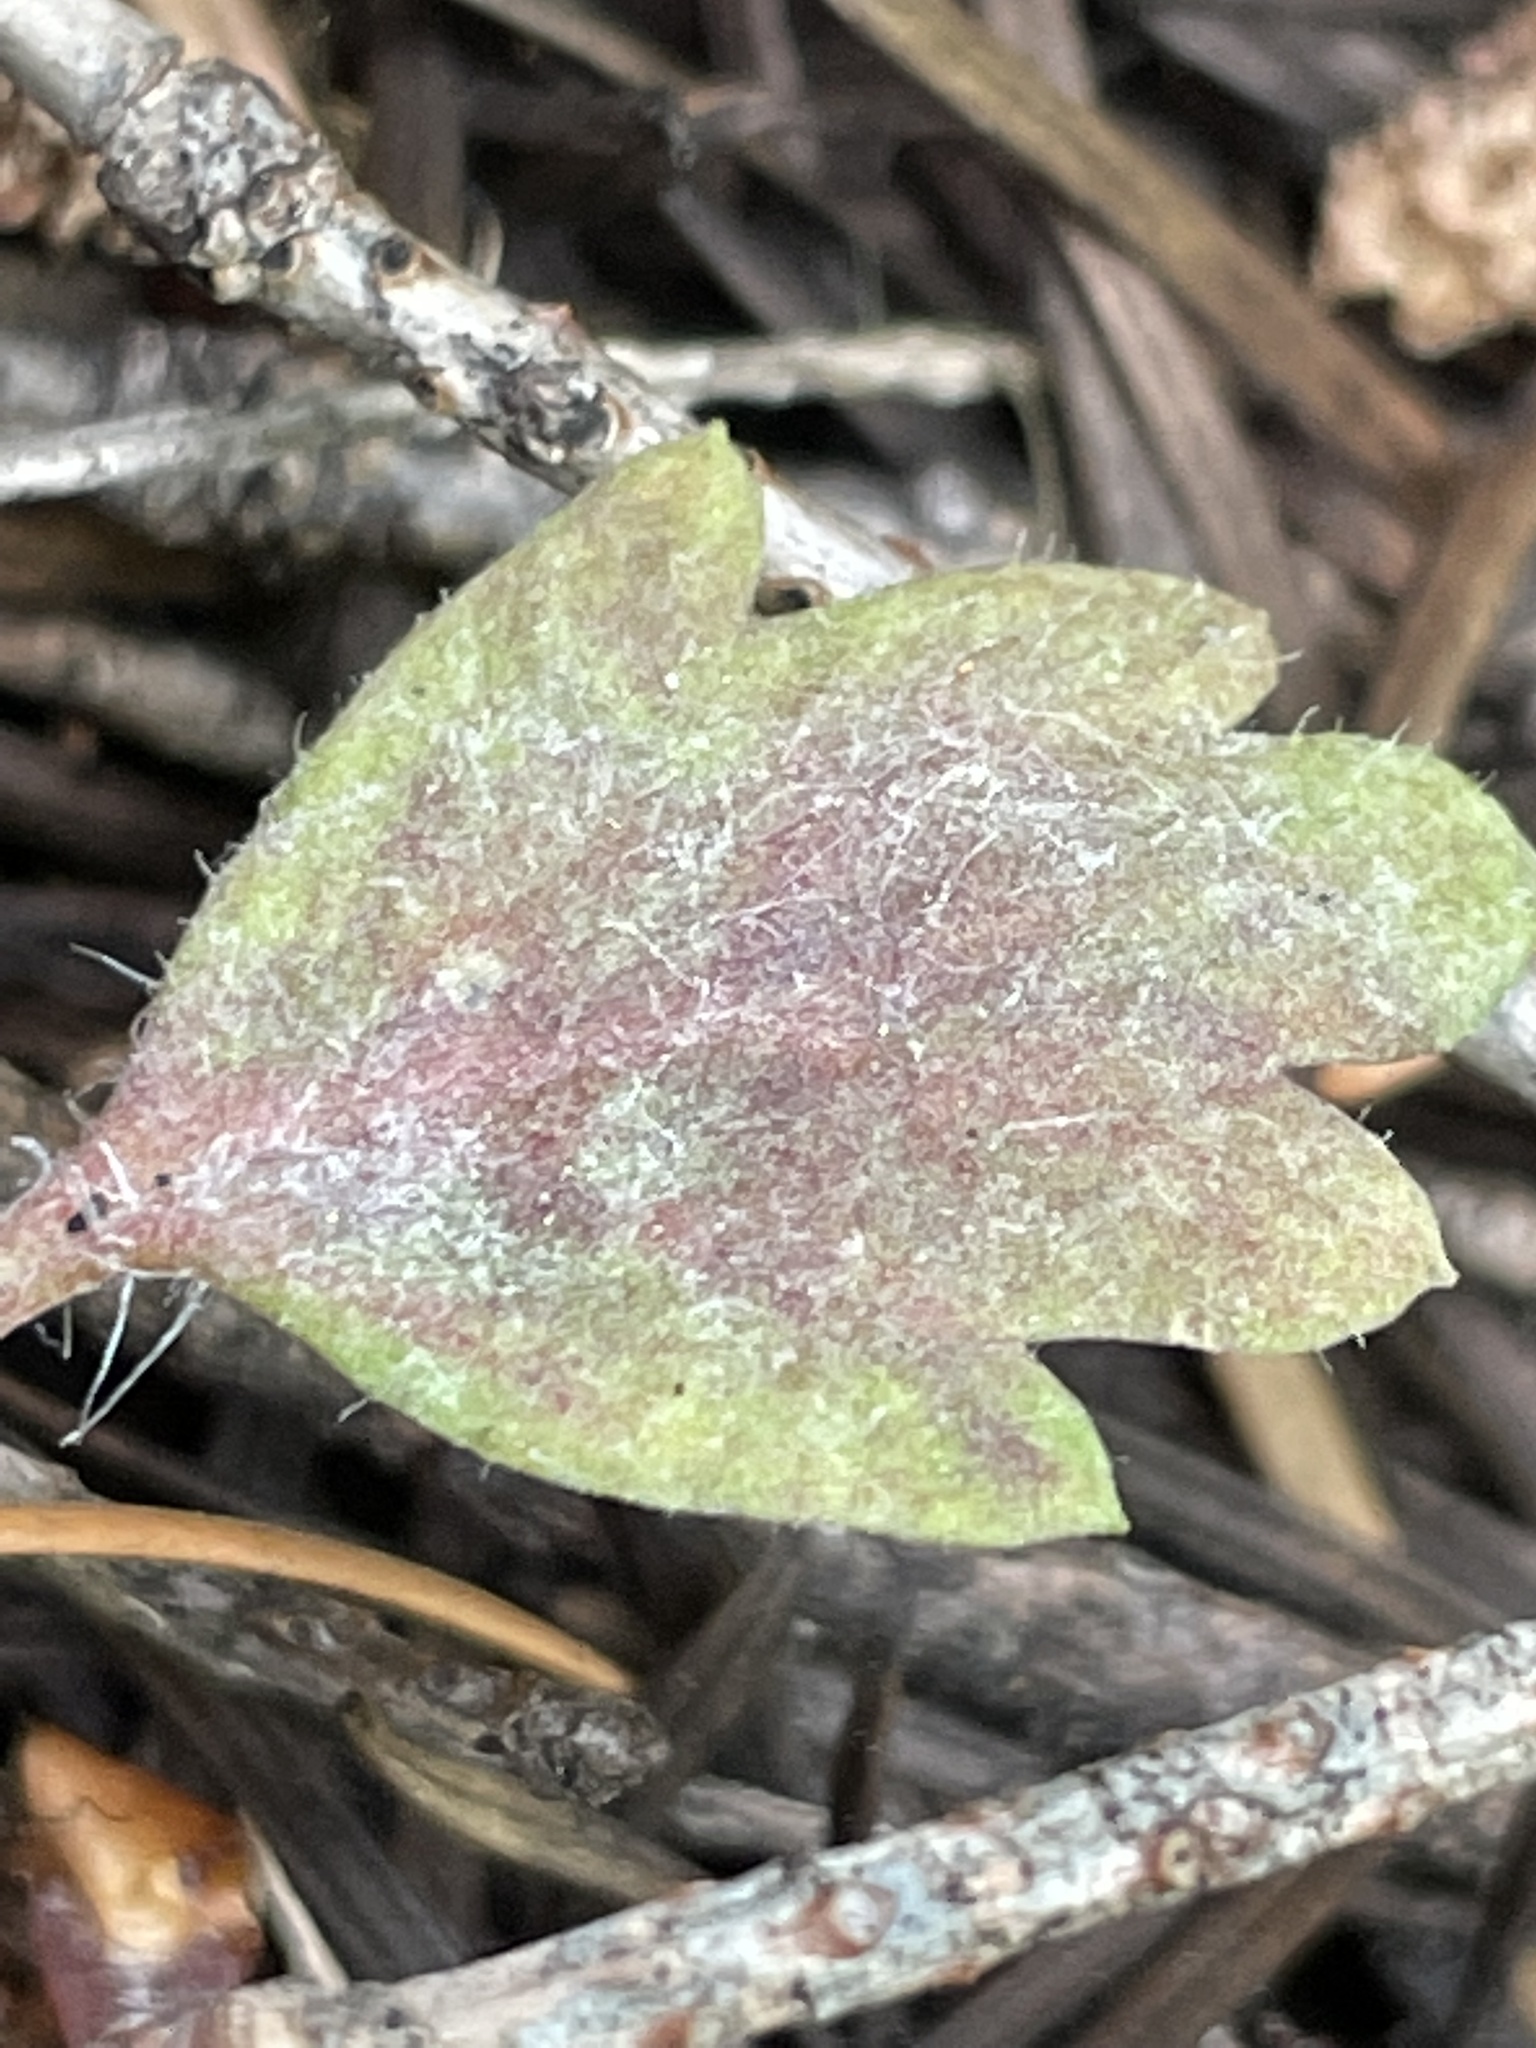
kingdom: Fungi
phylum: Ascomycota
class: Leotiomycetes
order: Helotiales
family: Erysiphaceae
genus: Podosphaera
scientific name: Podosphaera collomiae
